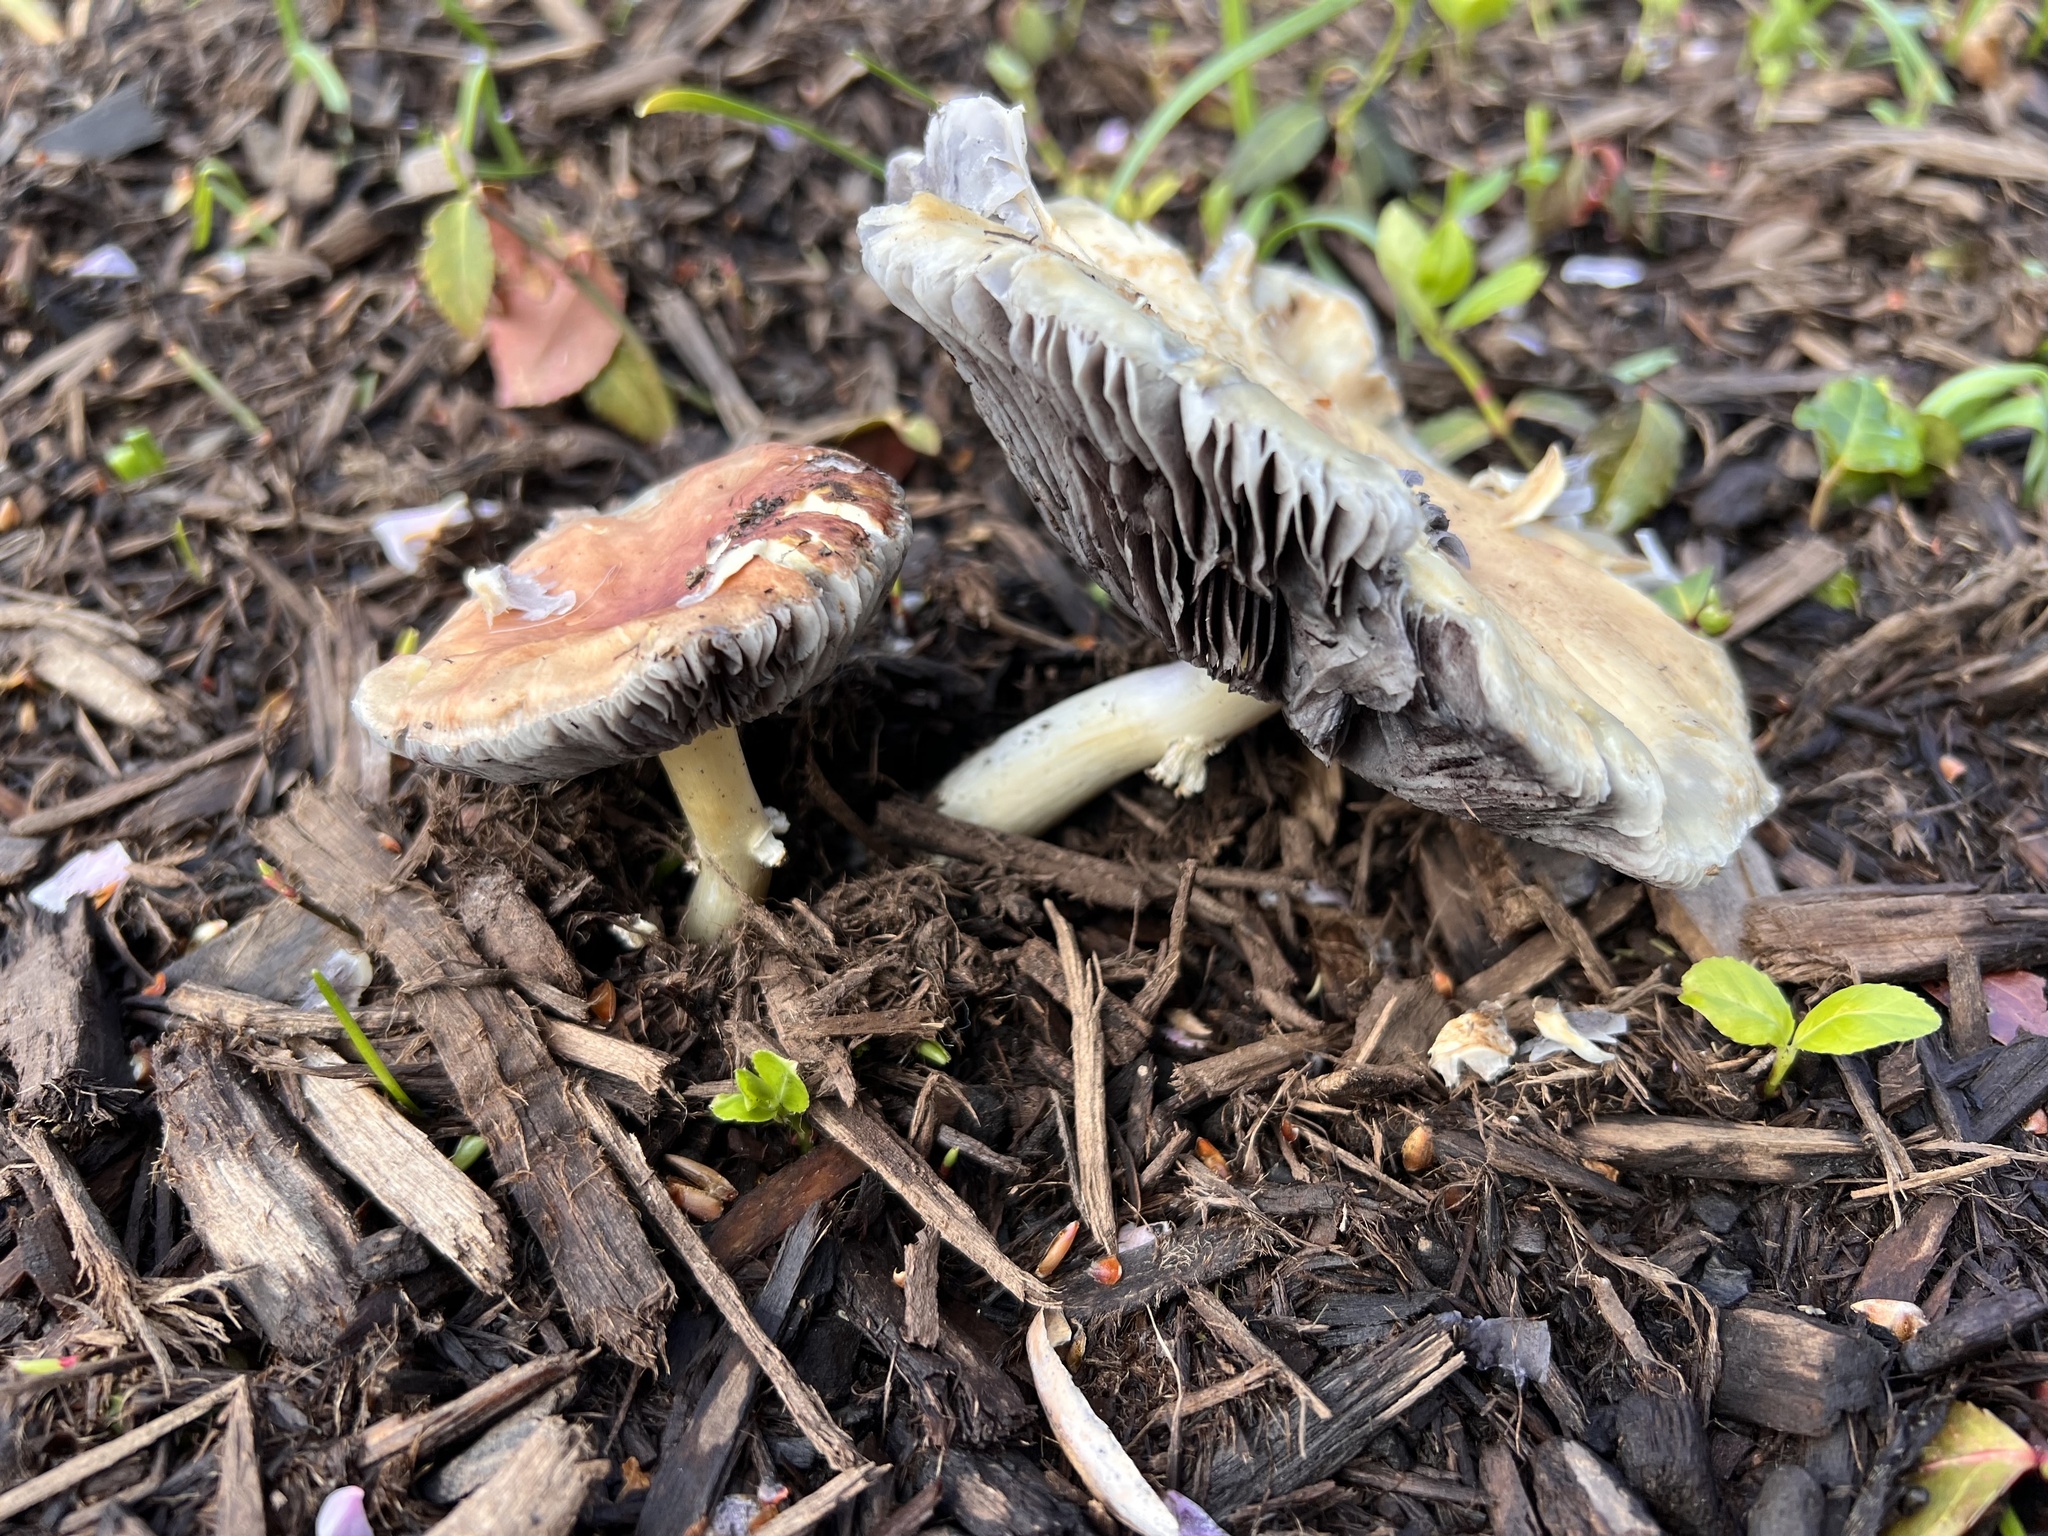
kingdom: Fungi
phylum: Basidiomycota
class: Agaricomycetes
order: Agaricales
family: Strophariaceae
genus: Stropharia
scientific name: Stropharia rugosoannulata
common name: Wine roundhead
